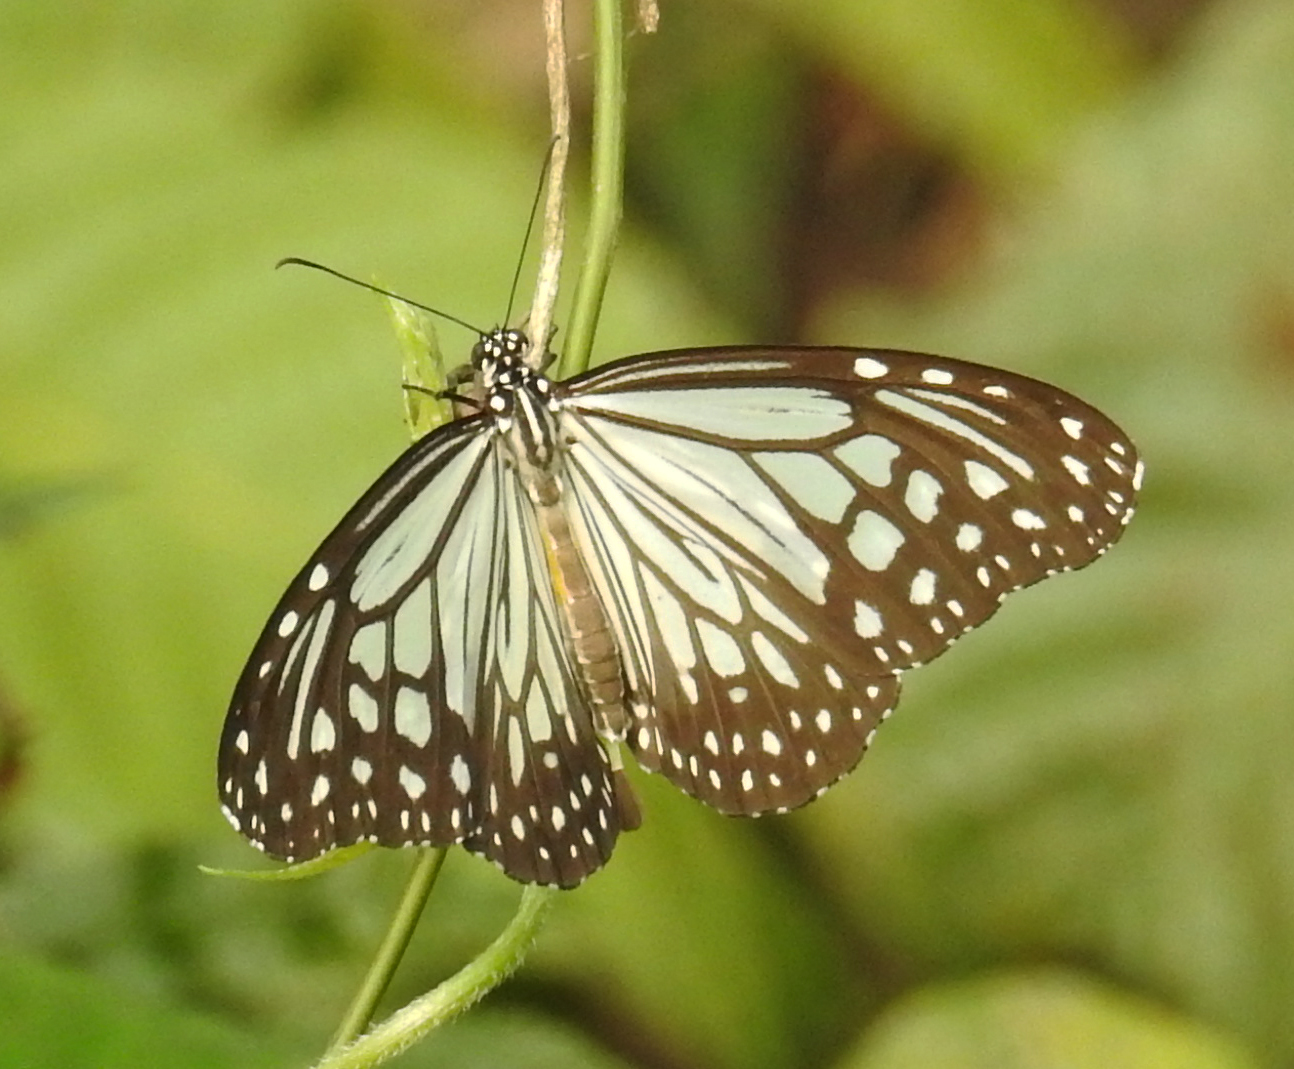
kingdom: Animalia
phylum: Arthropoda
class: Insecta
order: Lepidoptera
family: Nymphalidae
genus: Parantica
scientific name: Parantica aglea
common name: Glassy tiger
